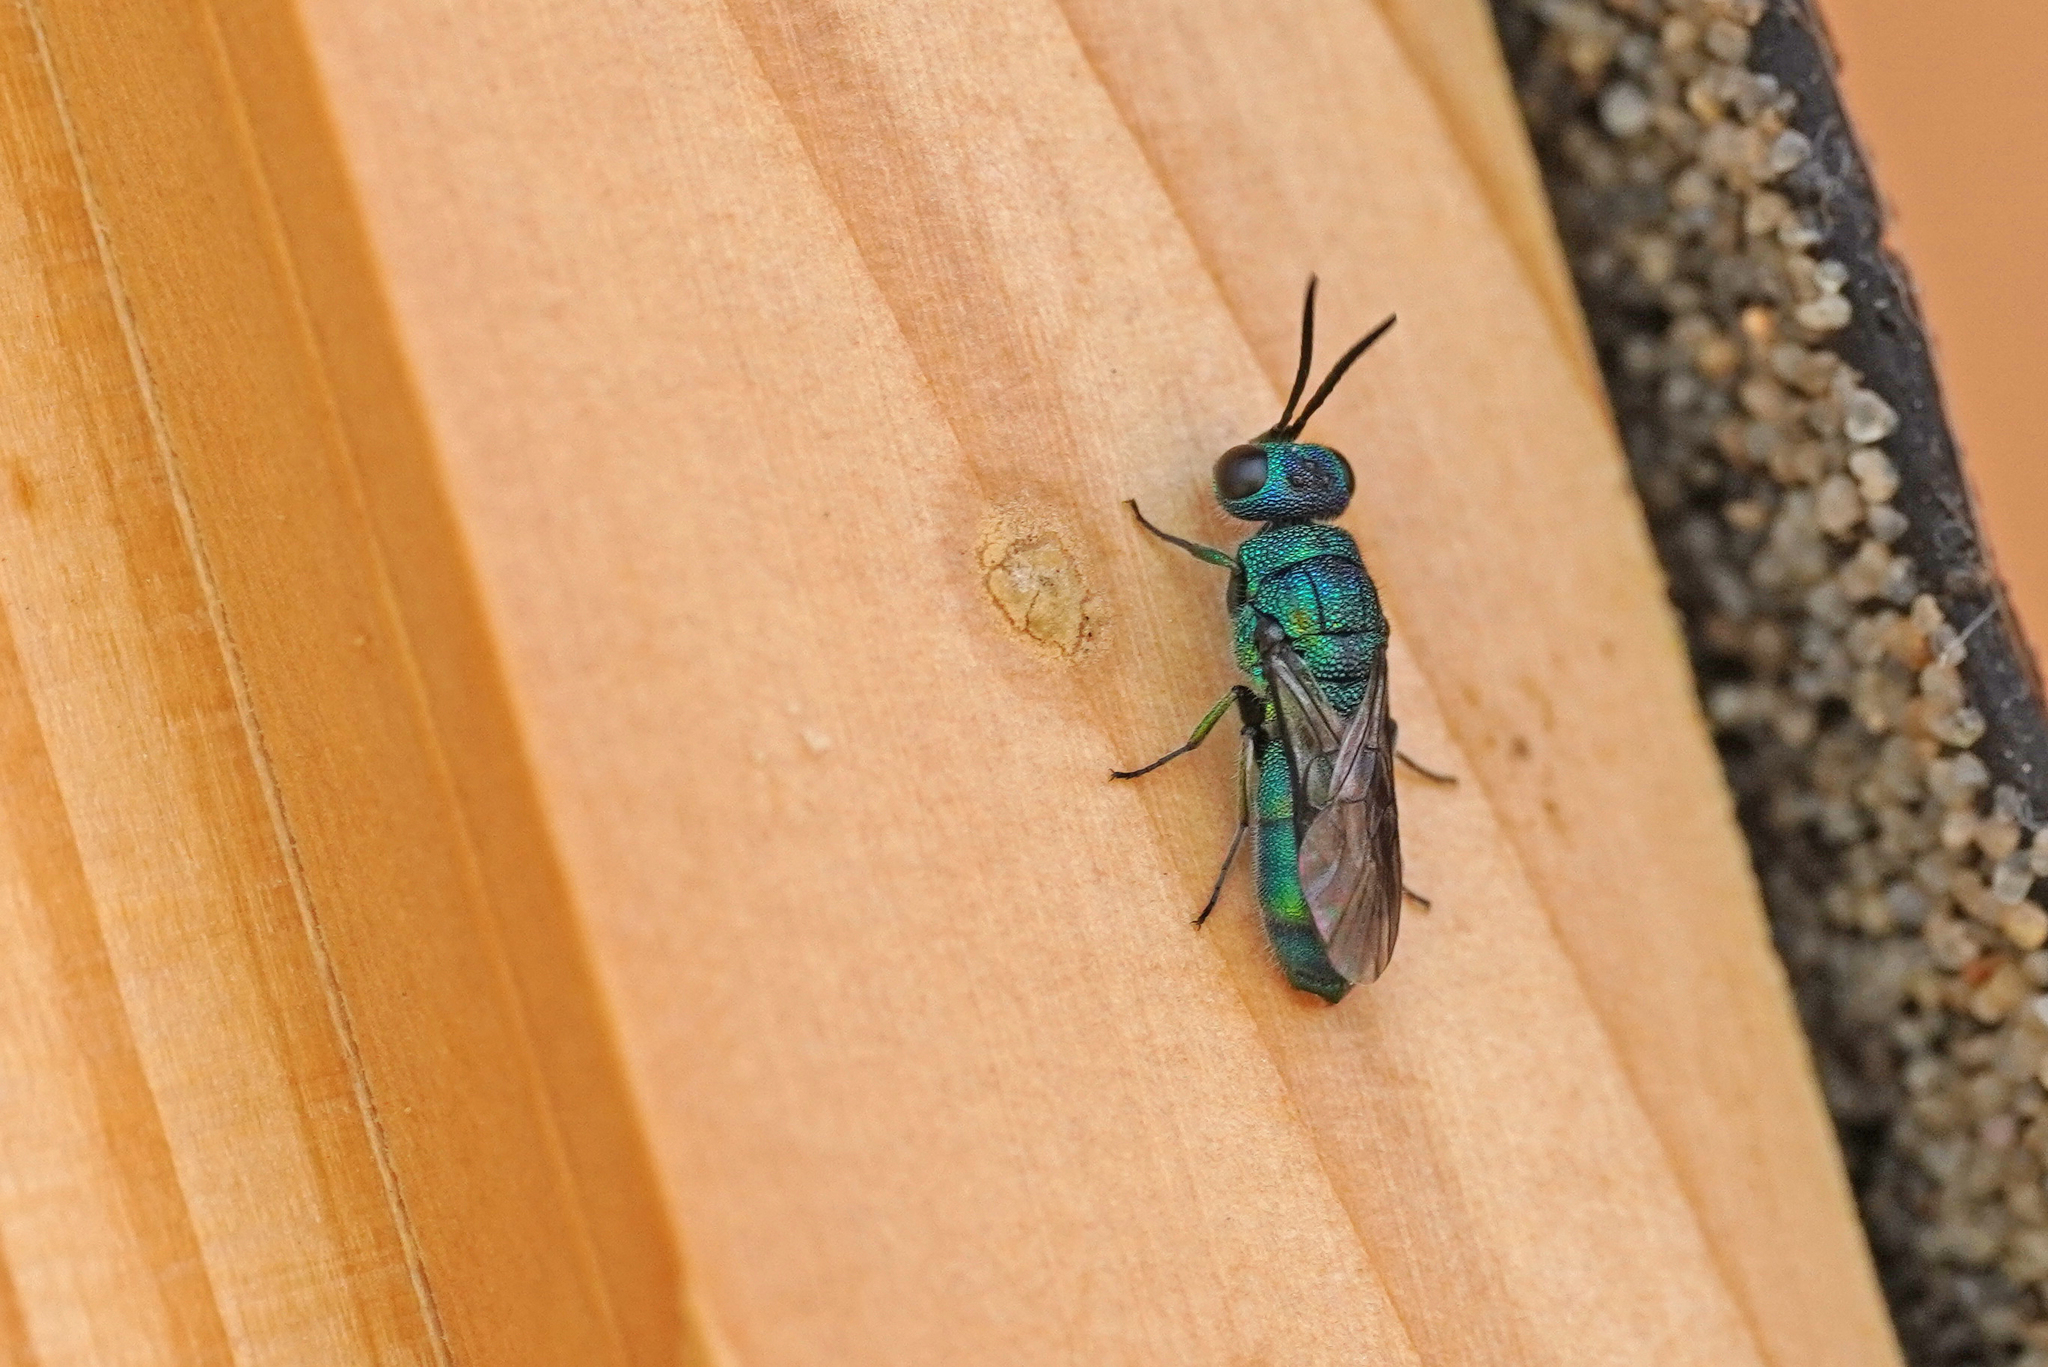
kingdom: Animalia
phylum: Arthropoda
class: Insecta
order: Hymenoptera
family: Pompilidae
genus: Pepsis
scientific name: Pepsis cyanea
